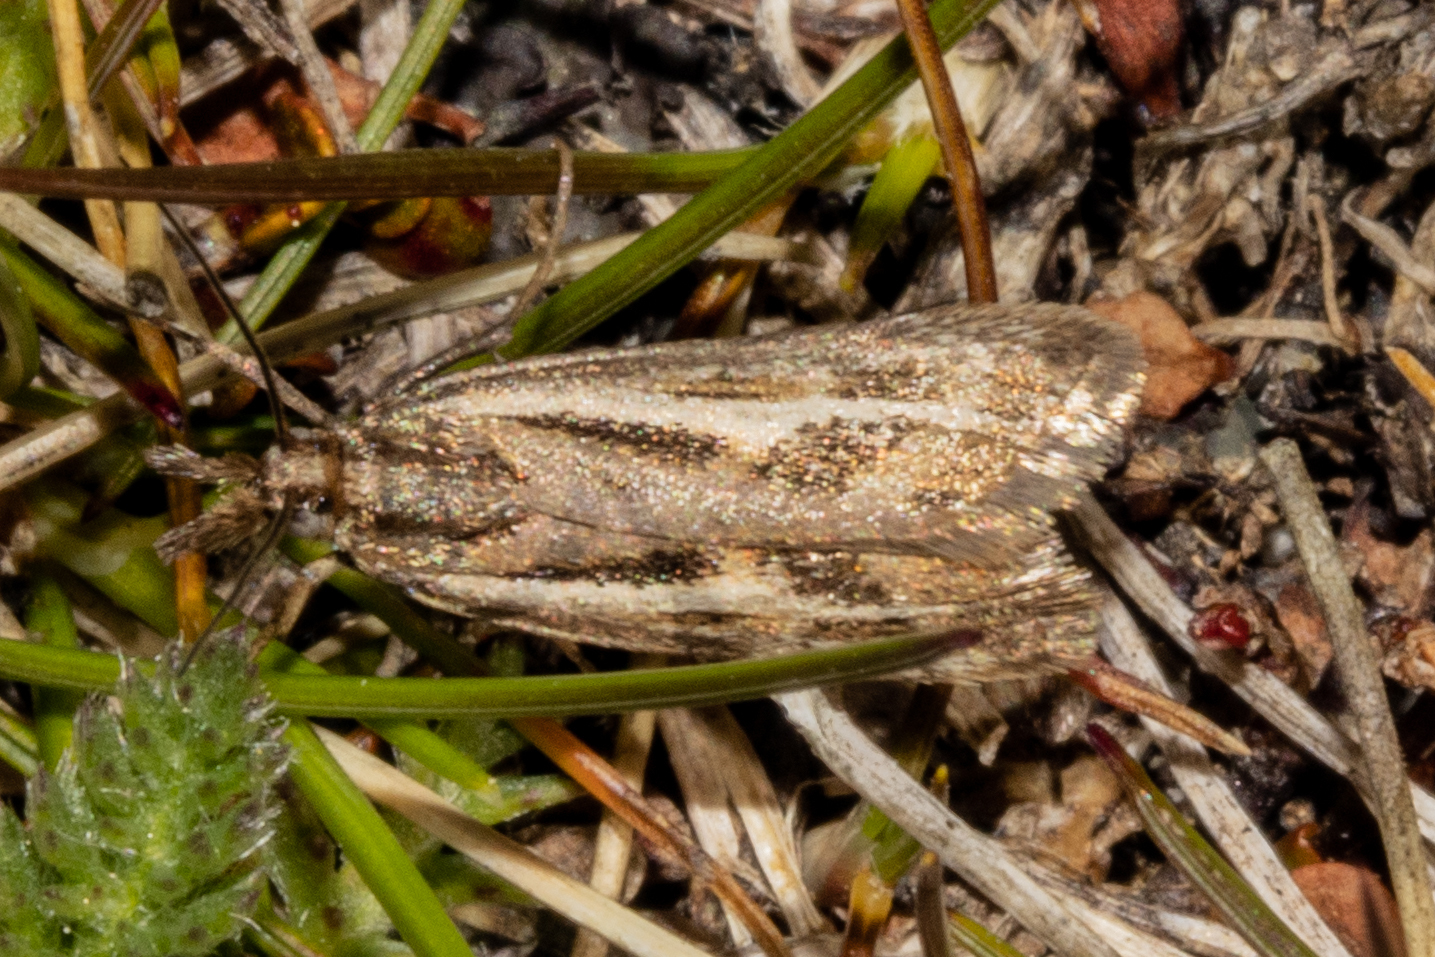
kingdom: Animalia
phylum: Arthropoda
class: Insecta
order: Lepidoptera
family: Crambidae
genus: Orocrambus
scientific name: Orocrambus corruptus
